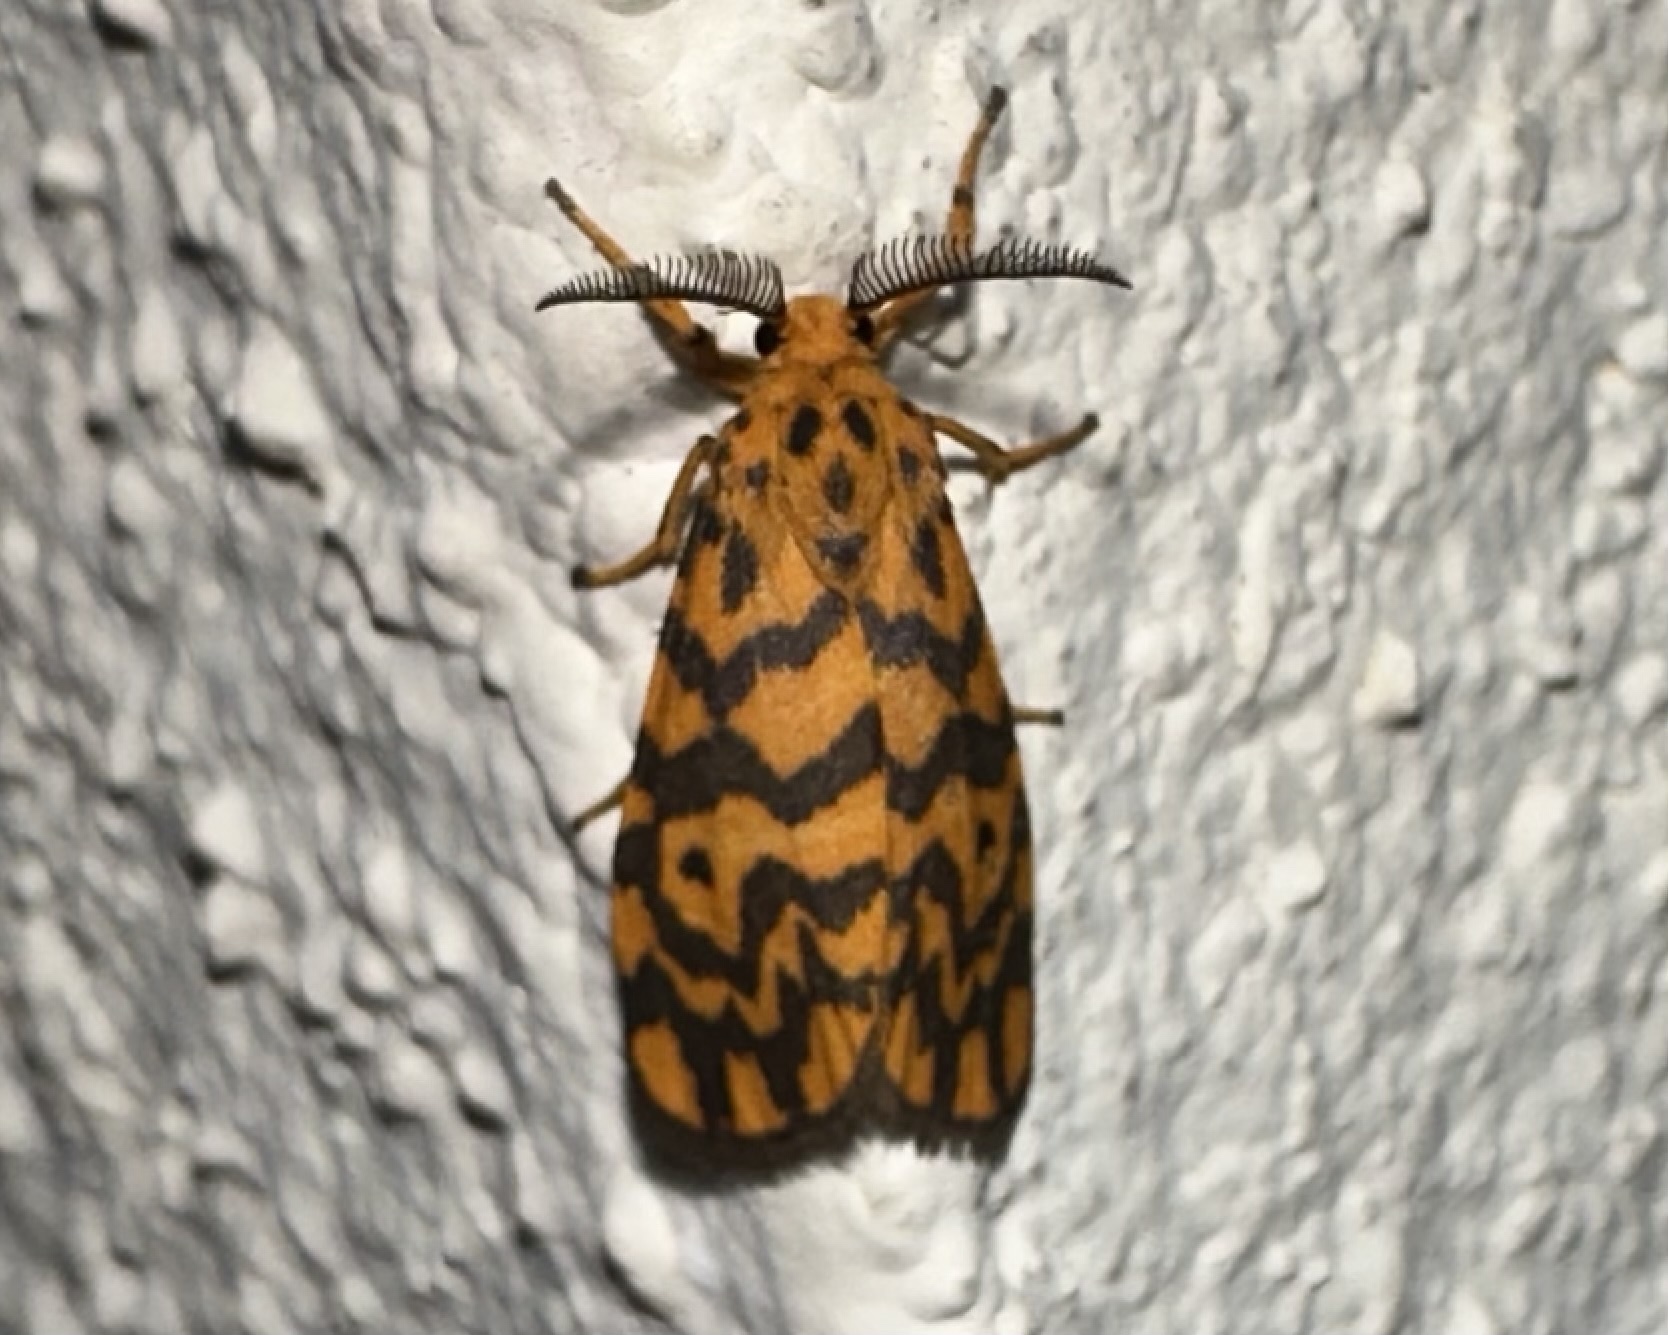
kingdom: Animalia
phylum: Arthropoda
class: Insecta
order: Lepidoptera
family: Erebidae
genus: Nepita
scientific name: Nepita conferta
